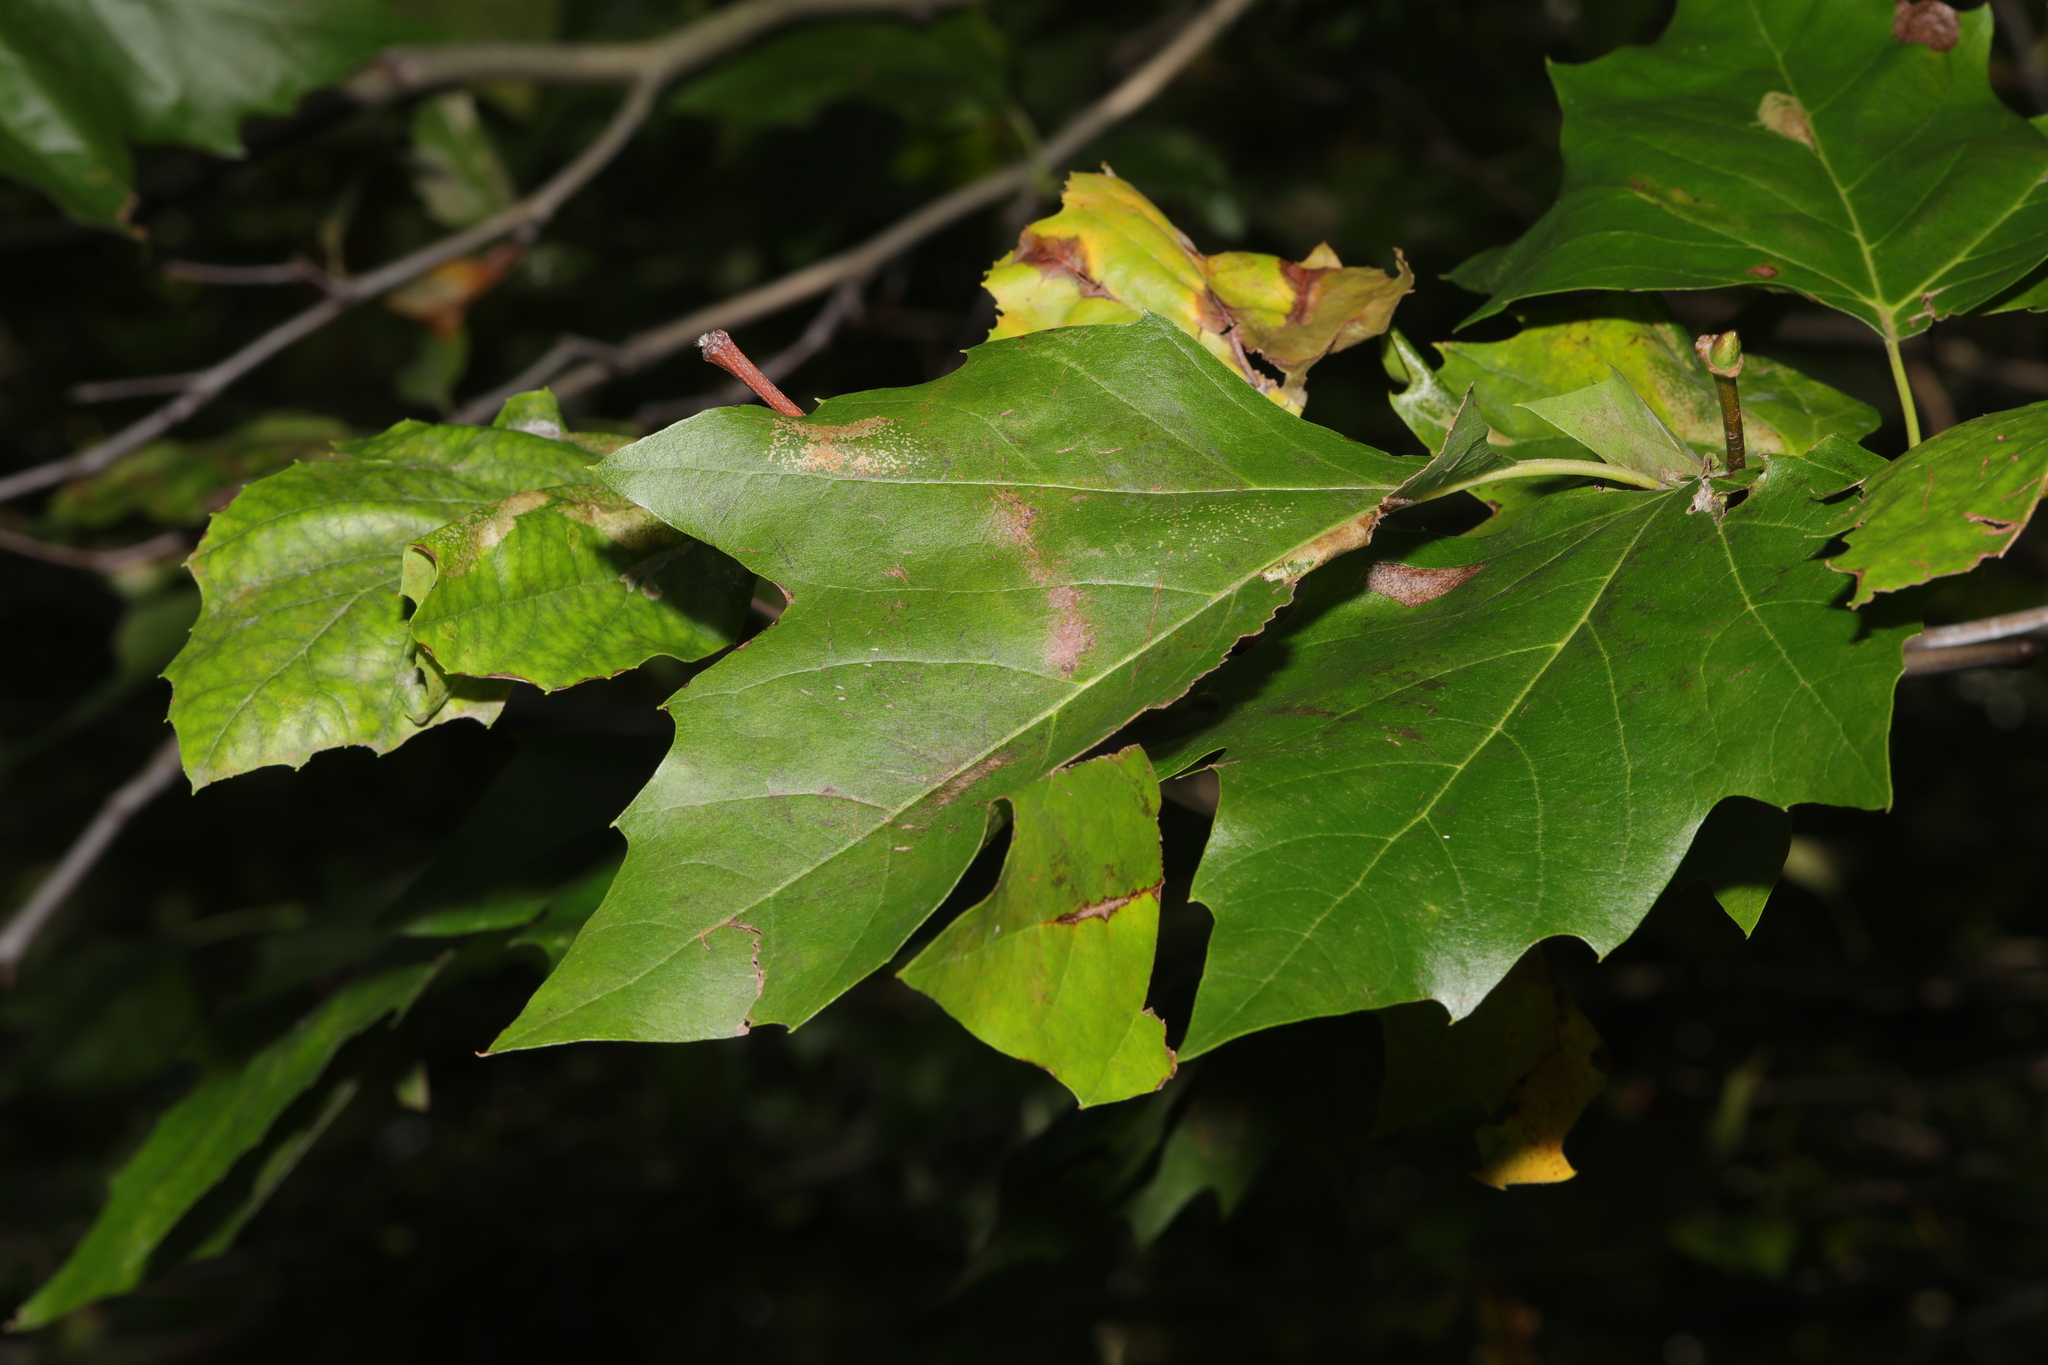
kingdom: Plantae
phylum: Tracheophyta
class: Magnoliopsida
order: Proteales
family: Platanaceae
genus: Platanus
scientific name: Platanus hispanica
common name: London plane
